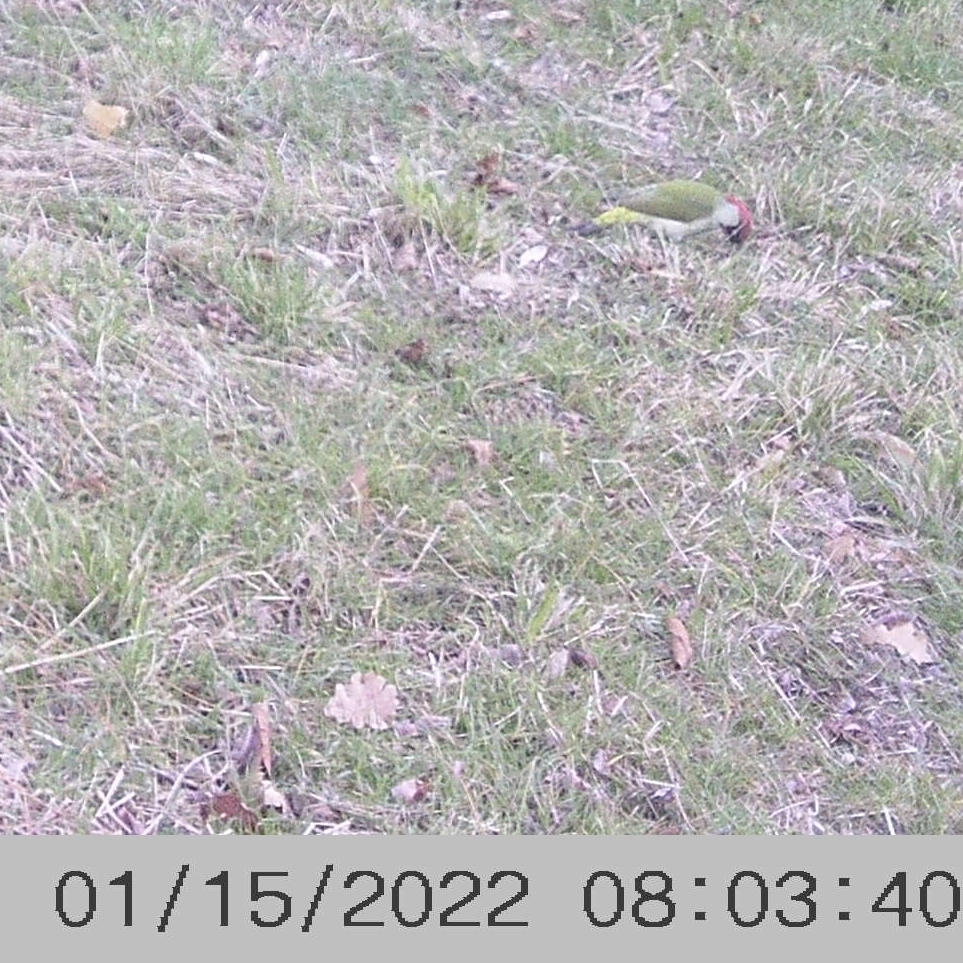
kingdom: Animalia
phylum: Chordata
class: Aves
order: Piciformes
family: Picidae
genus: Picus
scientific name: Picus viridis
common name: European green woodpecker
